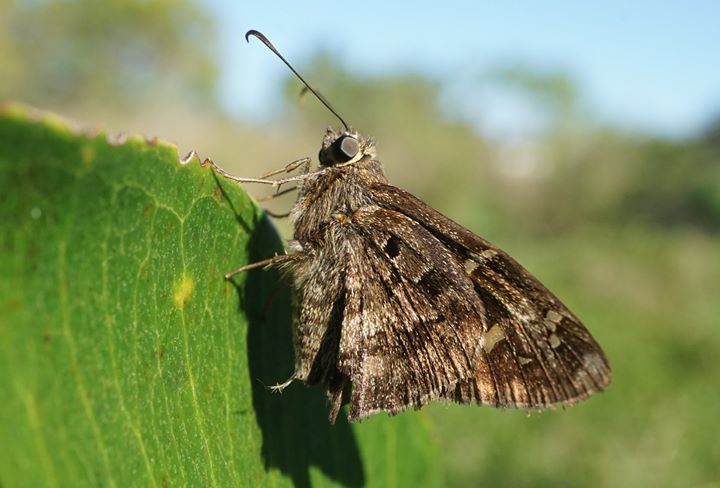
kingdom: Animalia
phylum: Arthropoda
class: Insecta
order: Lepidoptera
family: Hesperiidae
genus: Thorybes
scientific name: Thorybes
